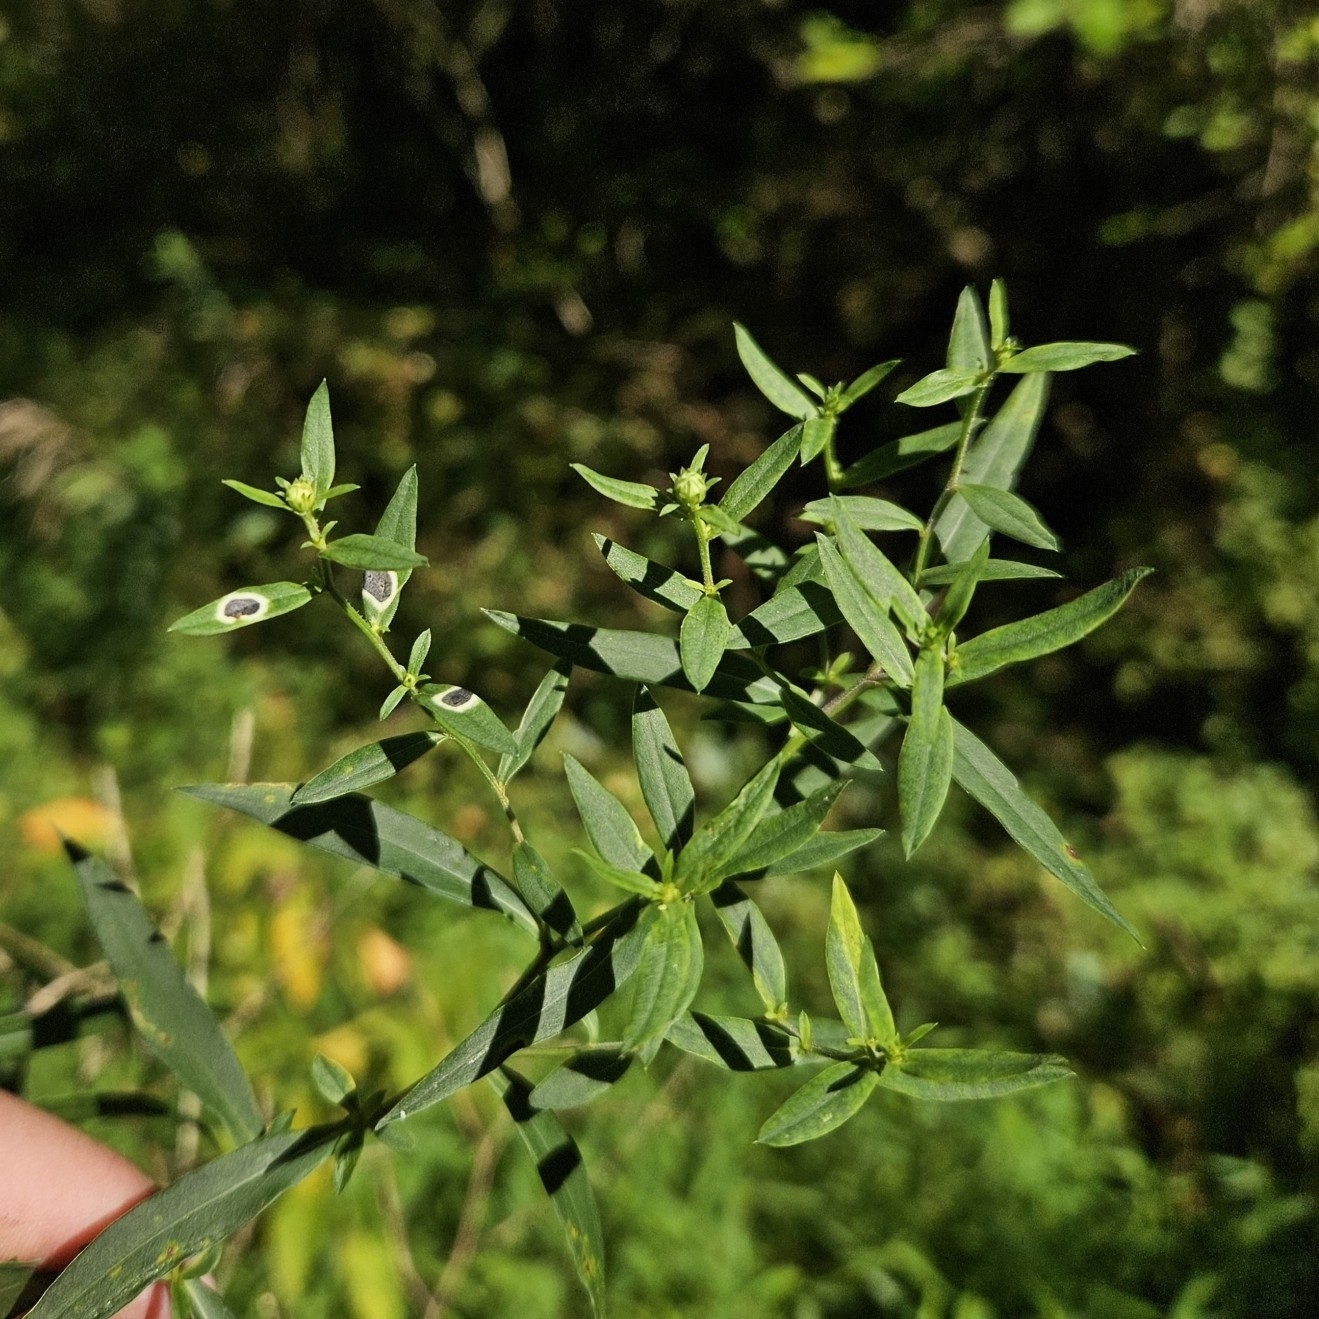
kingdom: Animalia
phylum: Arthropoda
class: Insecta
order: Diptera
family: Cecidomyiidae
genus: Asteromyia
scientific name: Asteromyia laeviana
